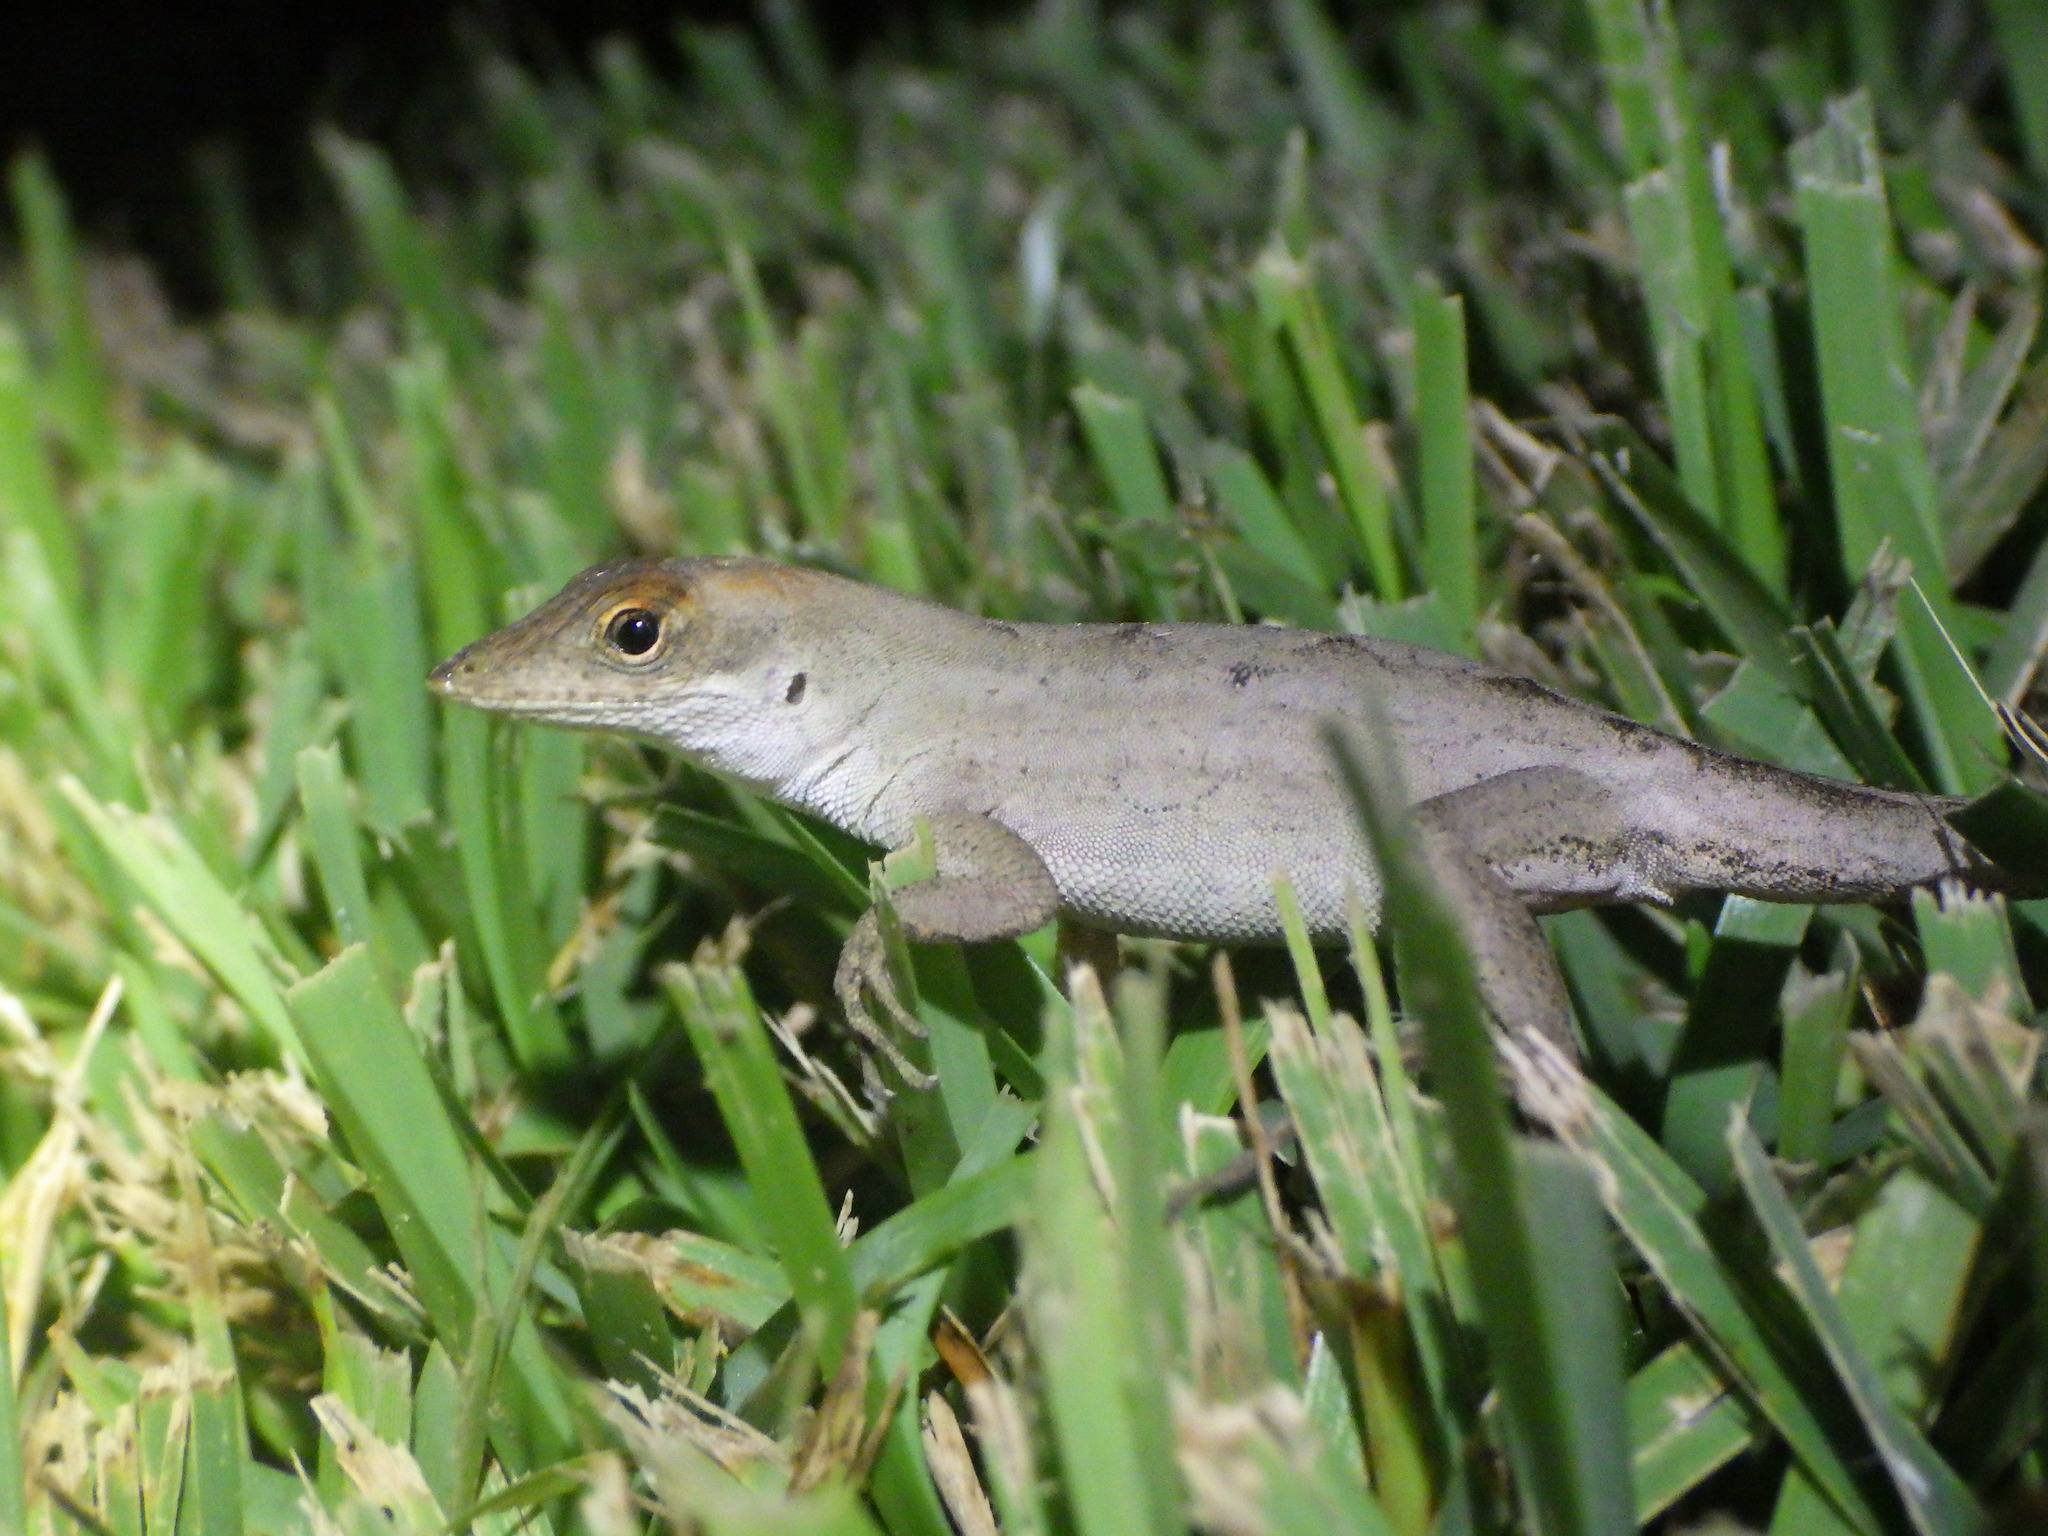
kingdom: Animalia
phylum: Chordata
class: Squamata
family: Dactyloidae
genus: Anolis
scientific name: Anolis sagrei
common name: Brown anole
